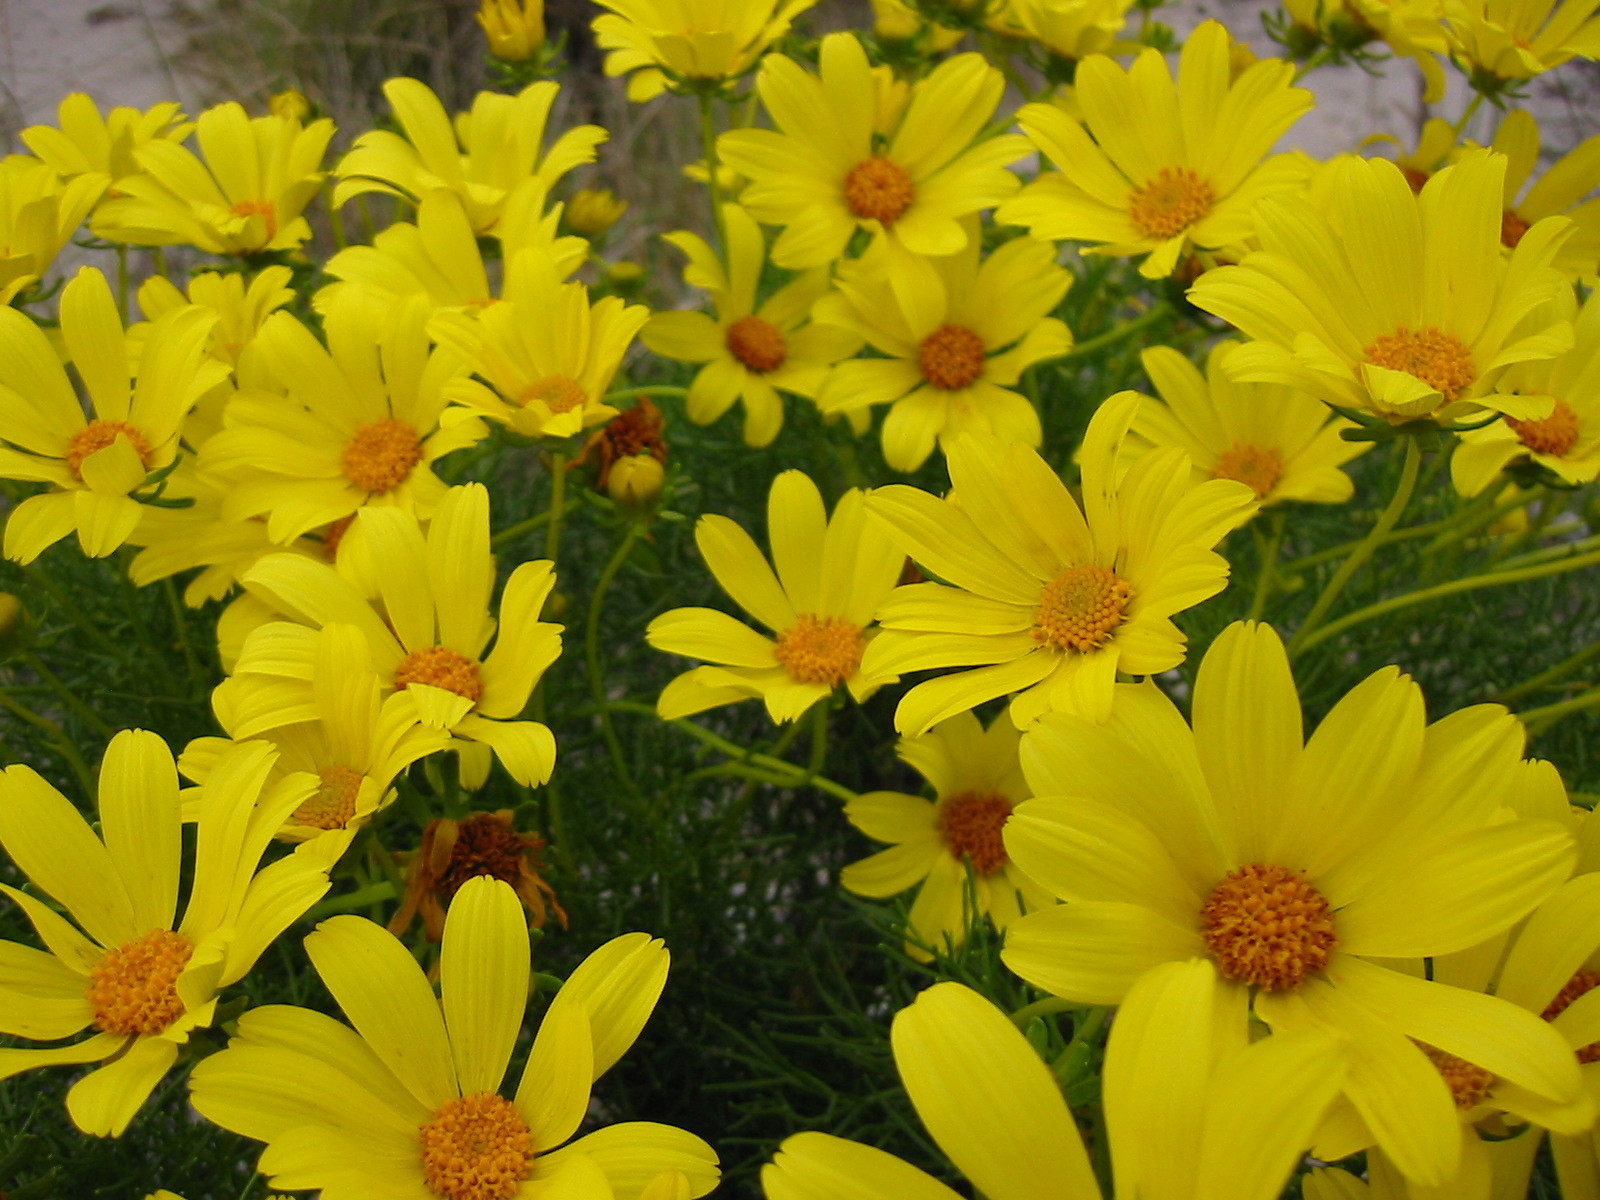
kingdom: Plantae
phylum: Tracheophyta
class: Magnoliopsida
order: Asterales
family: Asteraceae
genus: Coreopsis
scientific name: Coreopsis gigantea
